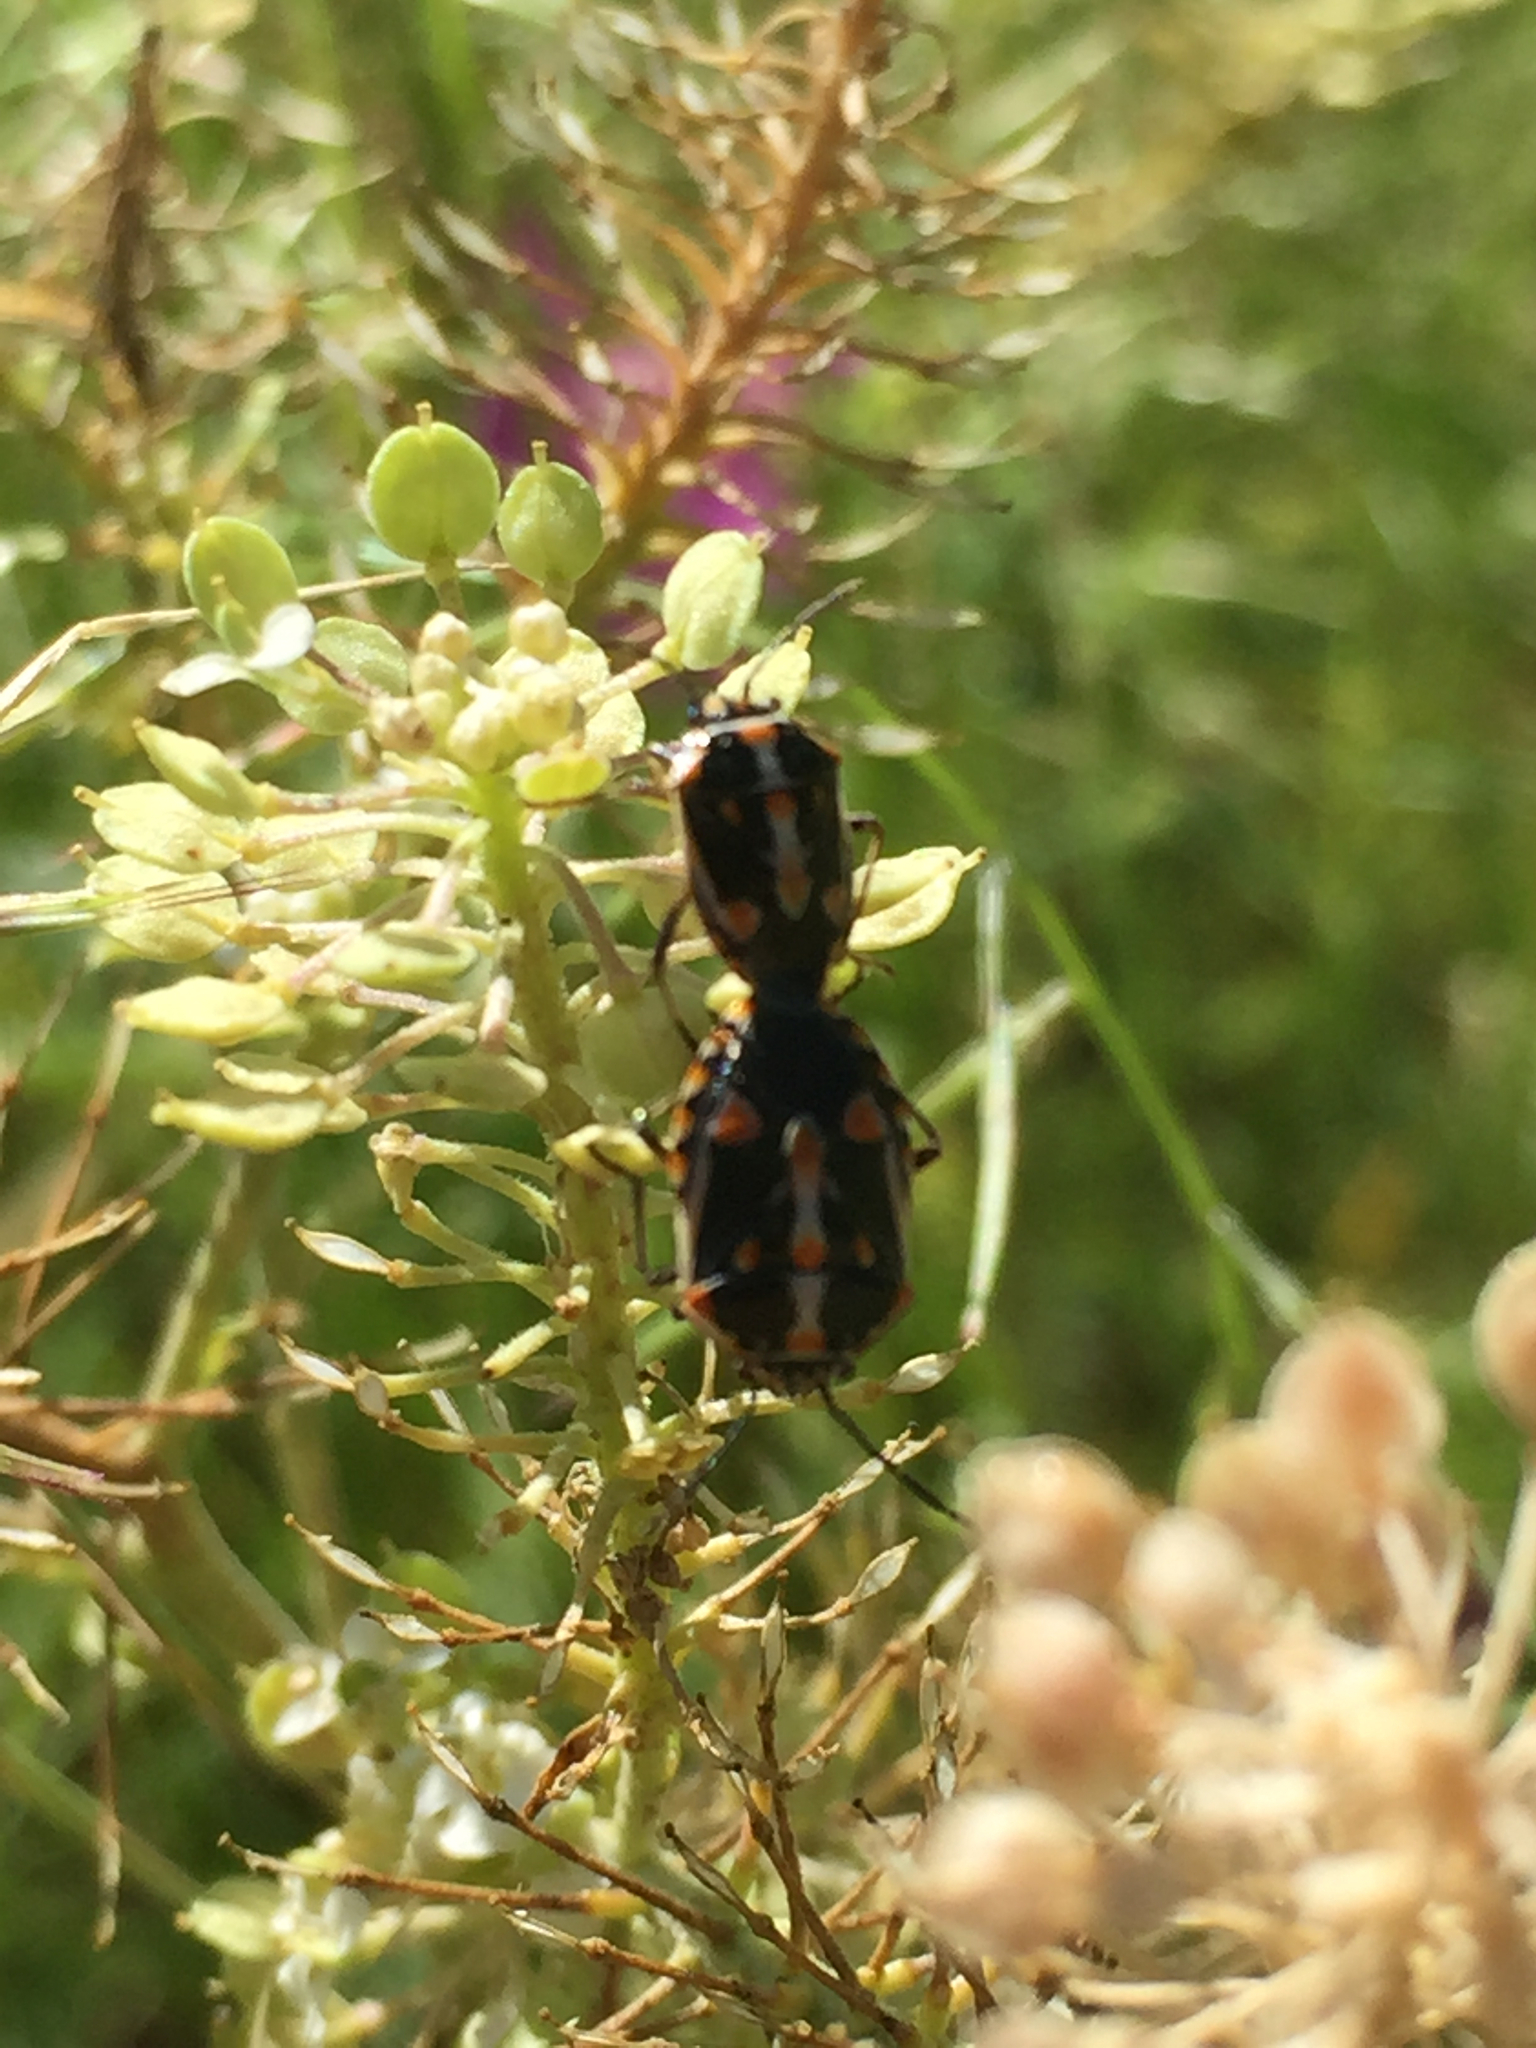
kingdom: Animalia
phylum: Arthropoda
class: Insecta
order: Hemiptera
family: Pentatomidae
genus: Bagrada
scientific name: Bagrada hilaris
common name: Bagrada bug
